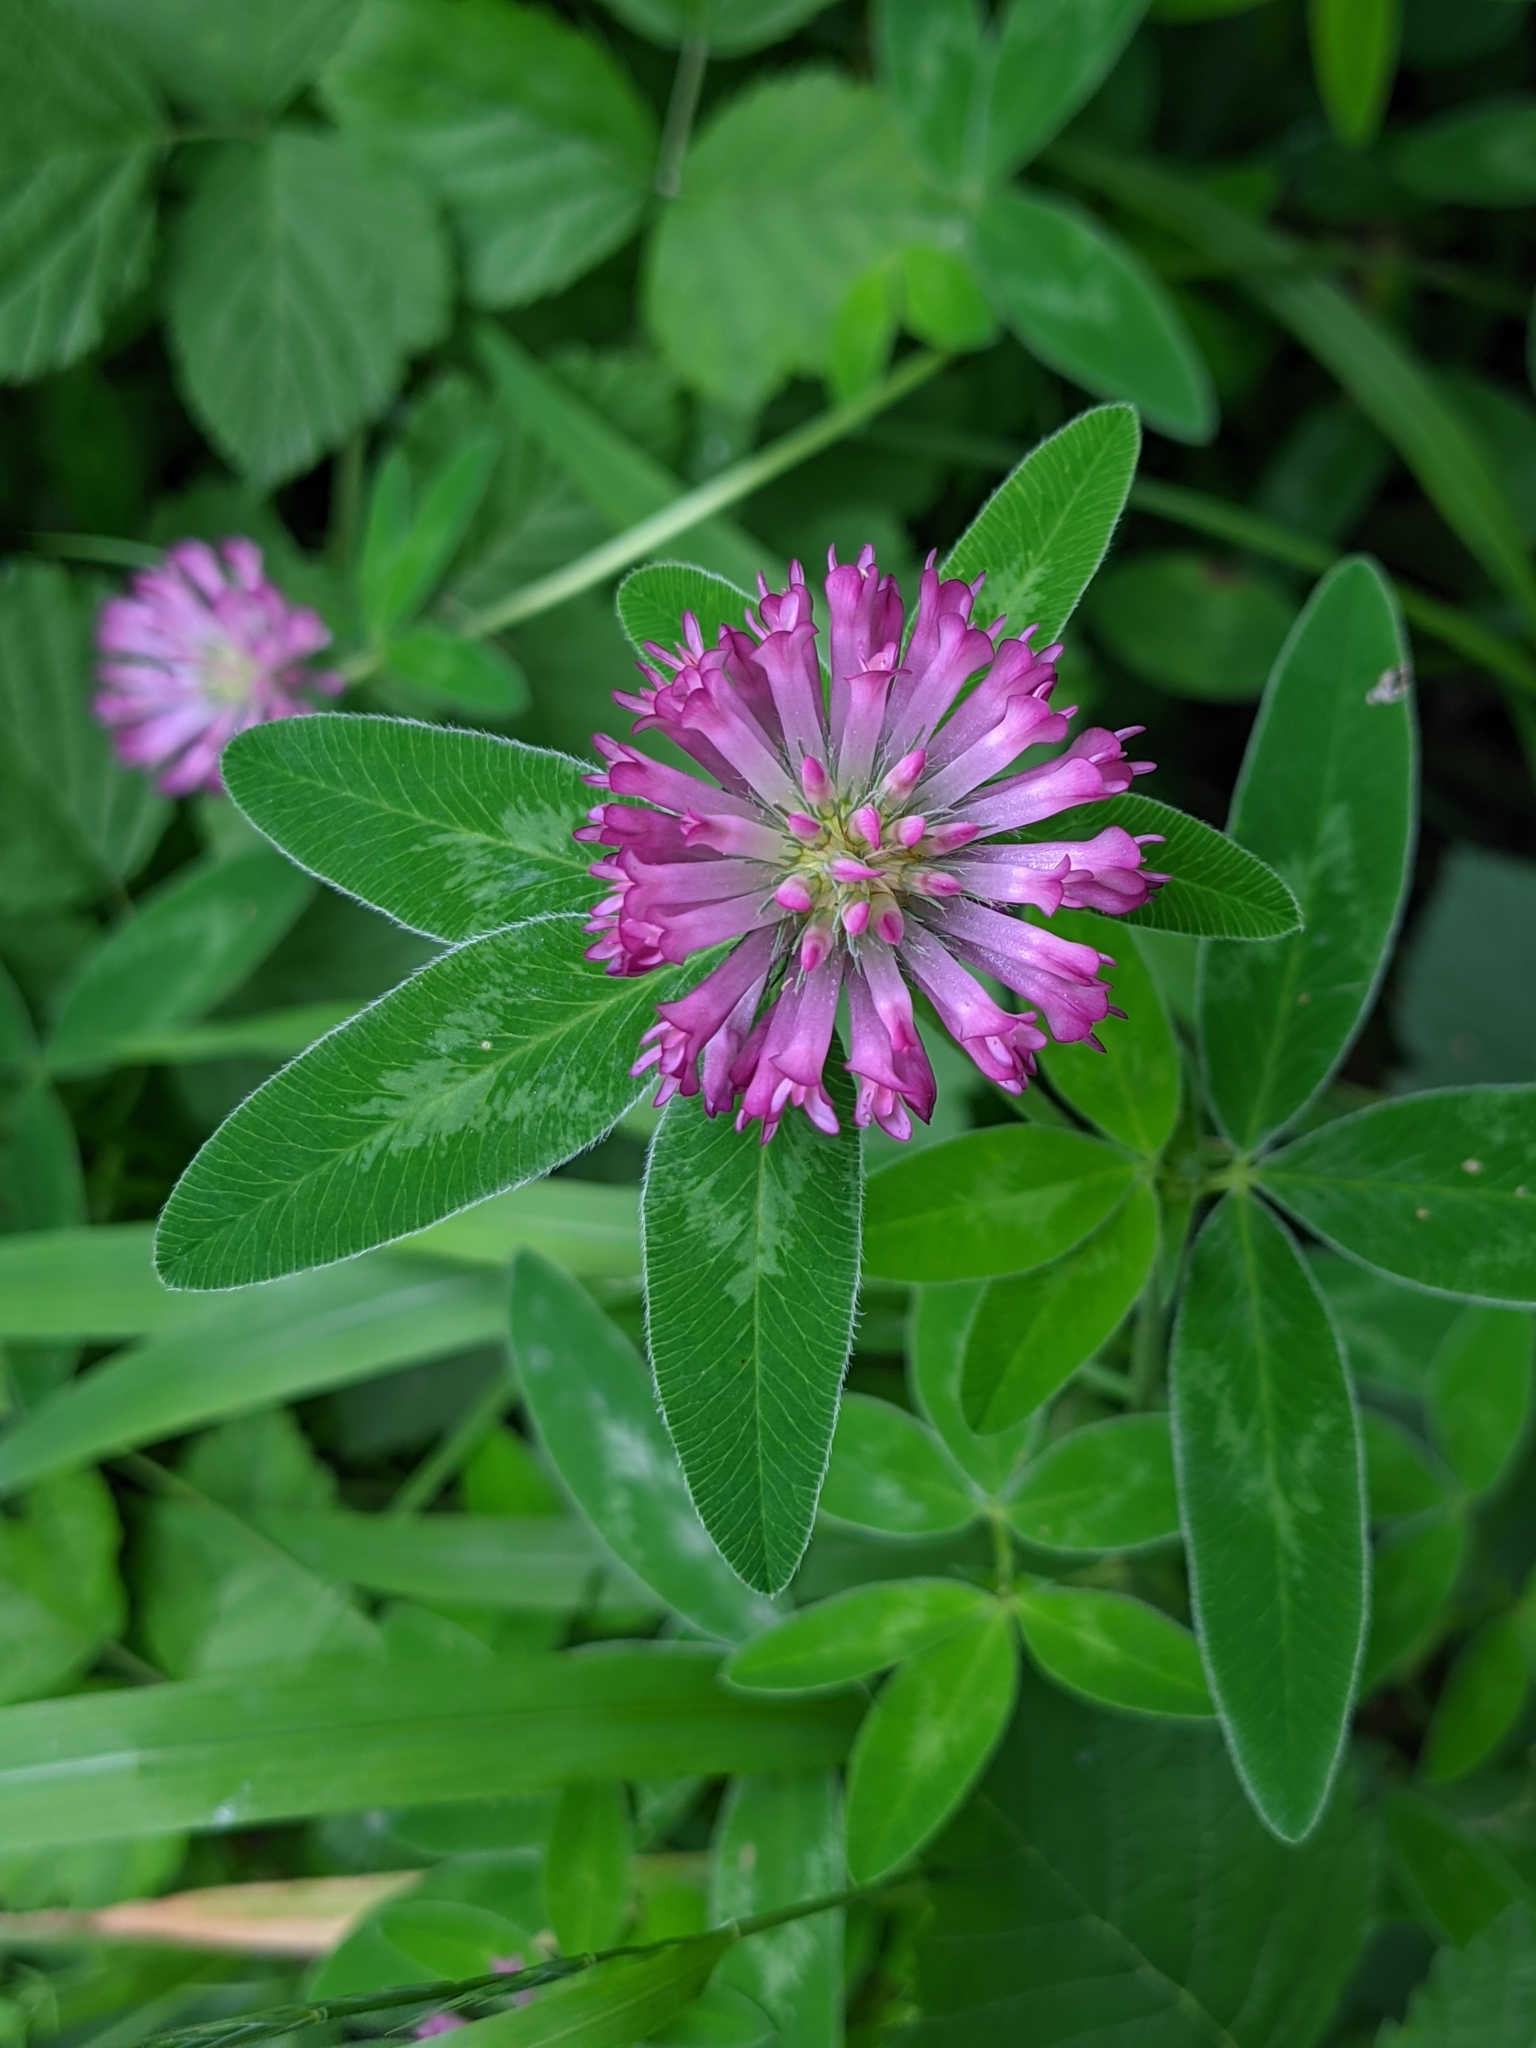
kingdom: Plantae
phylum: Tracheophyta
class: Magnoliopsida
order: Fabales
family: Fabaceae
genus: Trifolium
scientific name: Trifolium medium
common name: Zigzag clover
